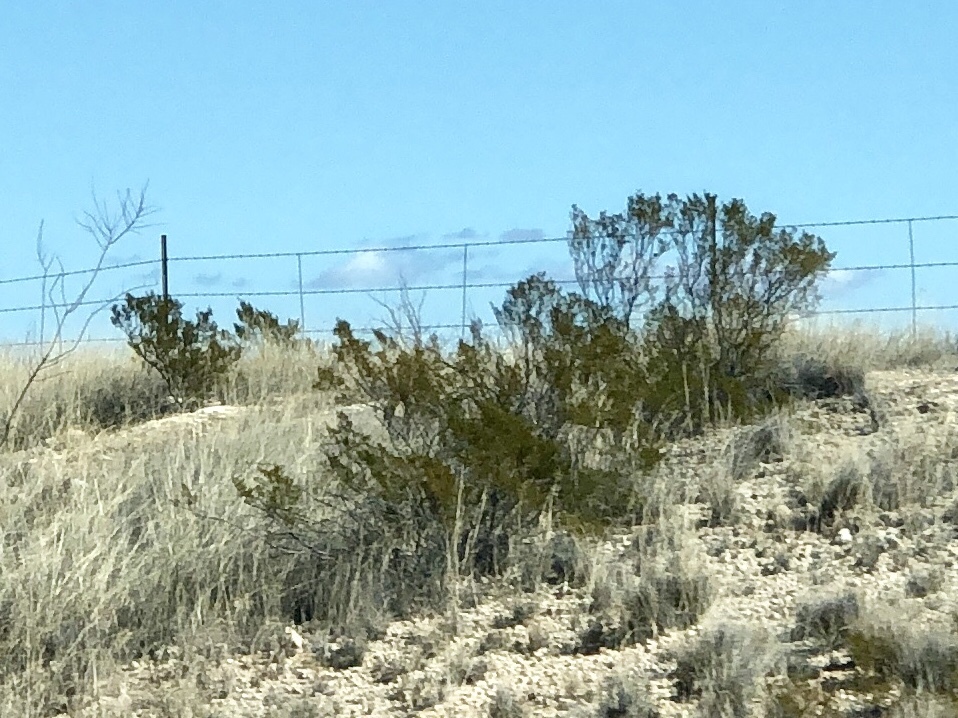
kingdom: Plantae
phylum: Tracheophyta
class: Magnoliopsida
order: Zygophyllales
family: Zygophyllaceae
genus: Larrea
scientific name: Larrea tridentata
